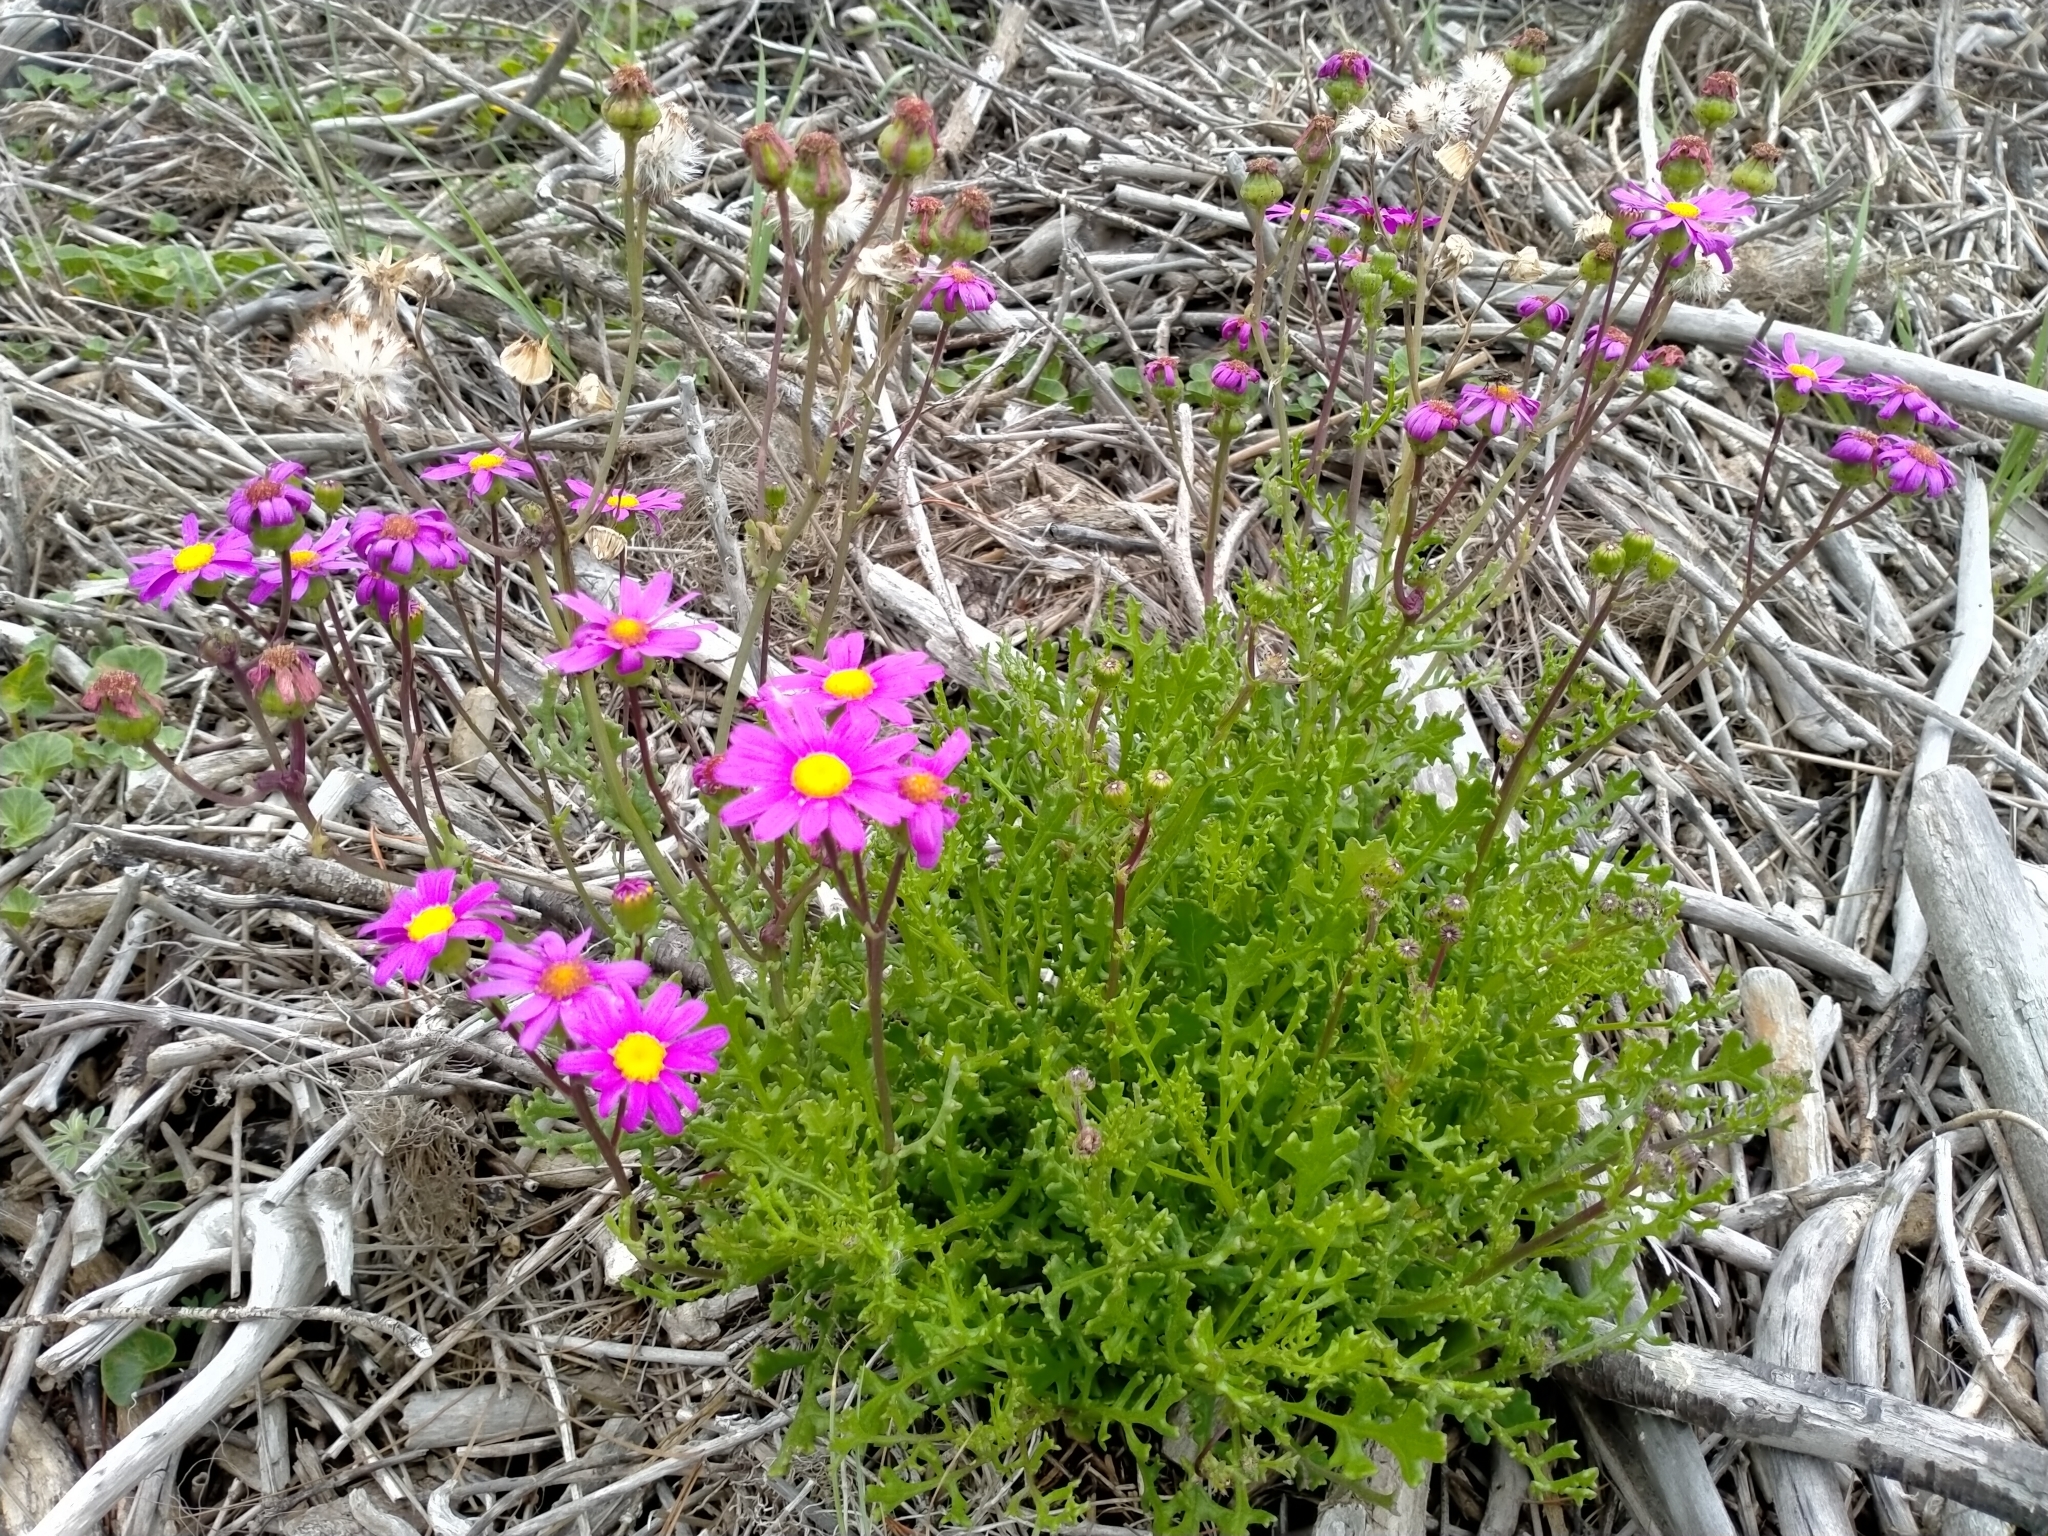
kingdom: Plantae
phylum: Tracheophyta
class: Magnoliopsida
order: Asterales
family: Asteraceae
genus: Senecio
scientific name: Senecio elegans
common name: Purple groundsel
